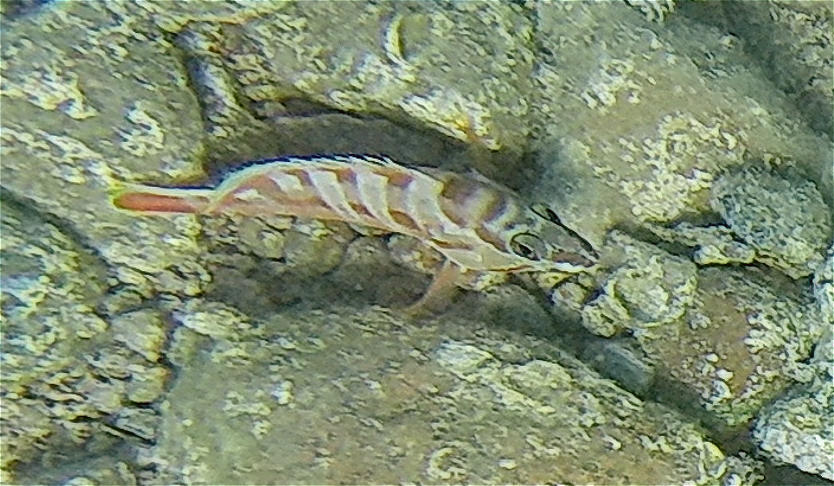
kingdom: Animalia
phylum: Chordata
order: Perciformes
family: Serranidae
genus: Epinephelus
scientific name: Epinephelus fasciatus
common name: Blacktip grouper
